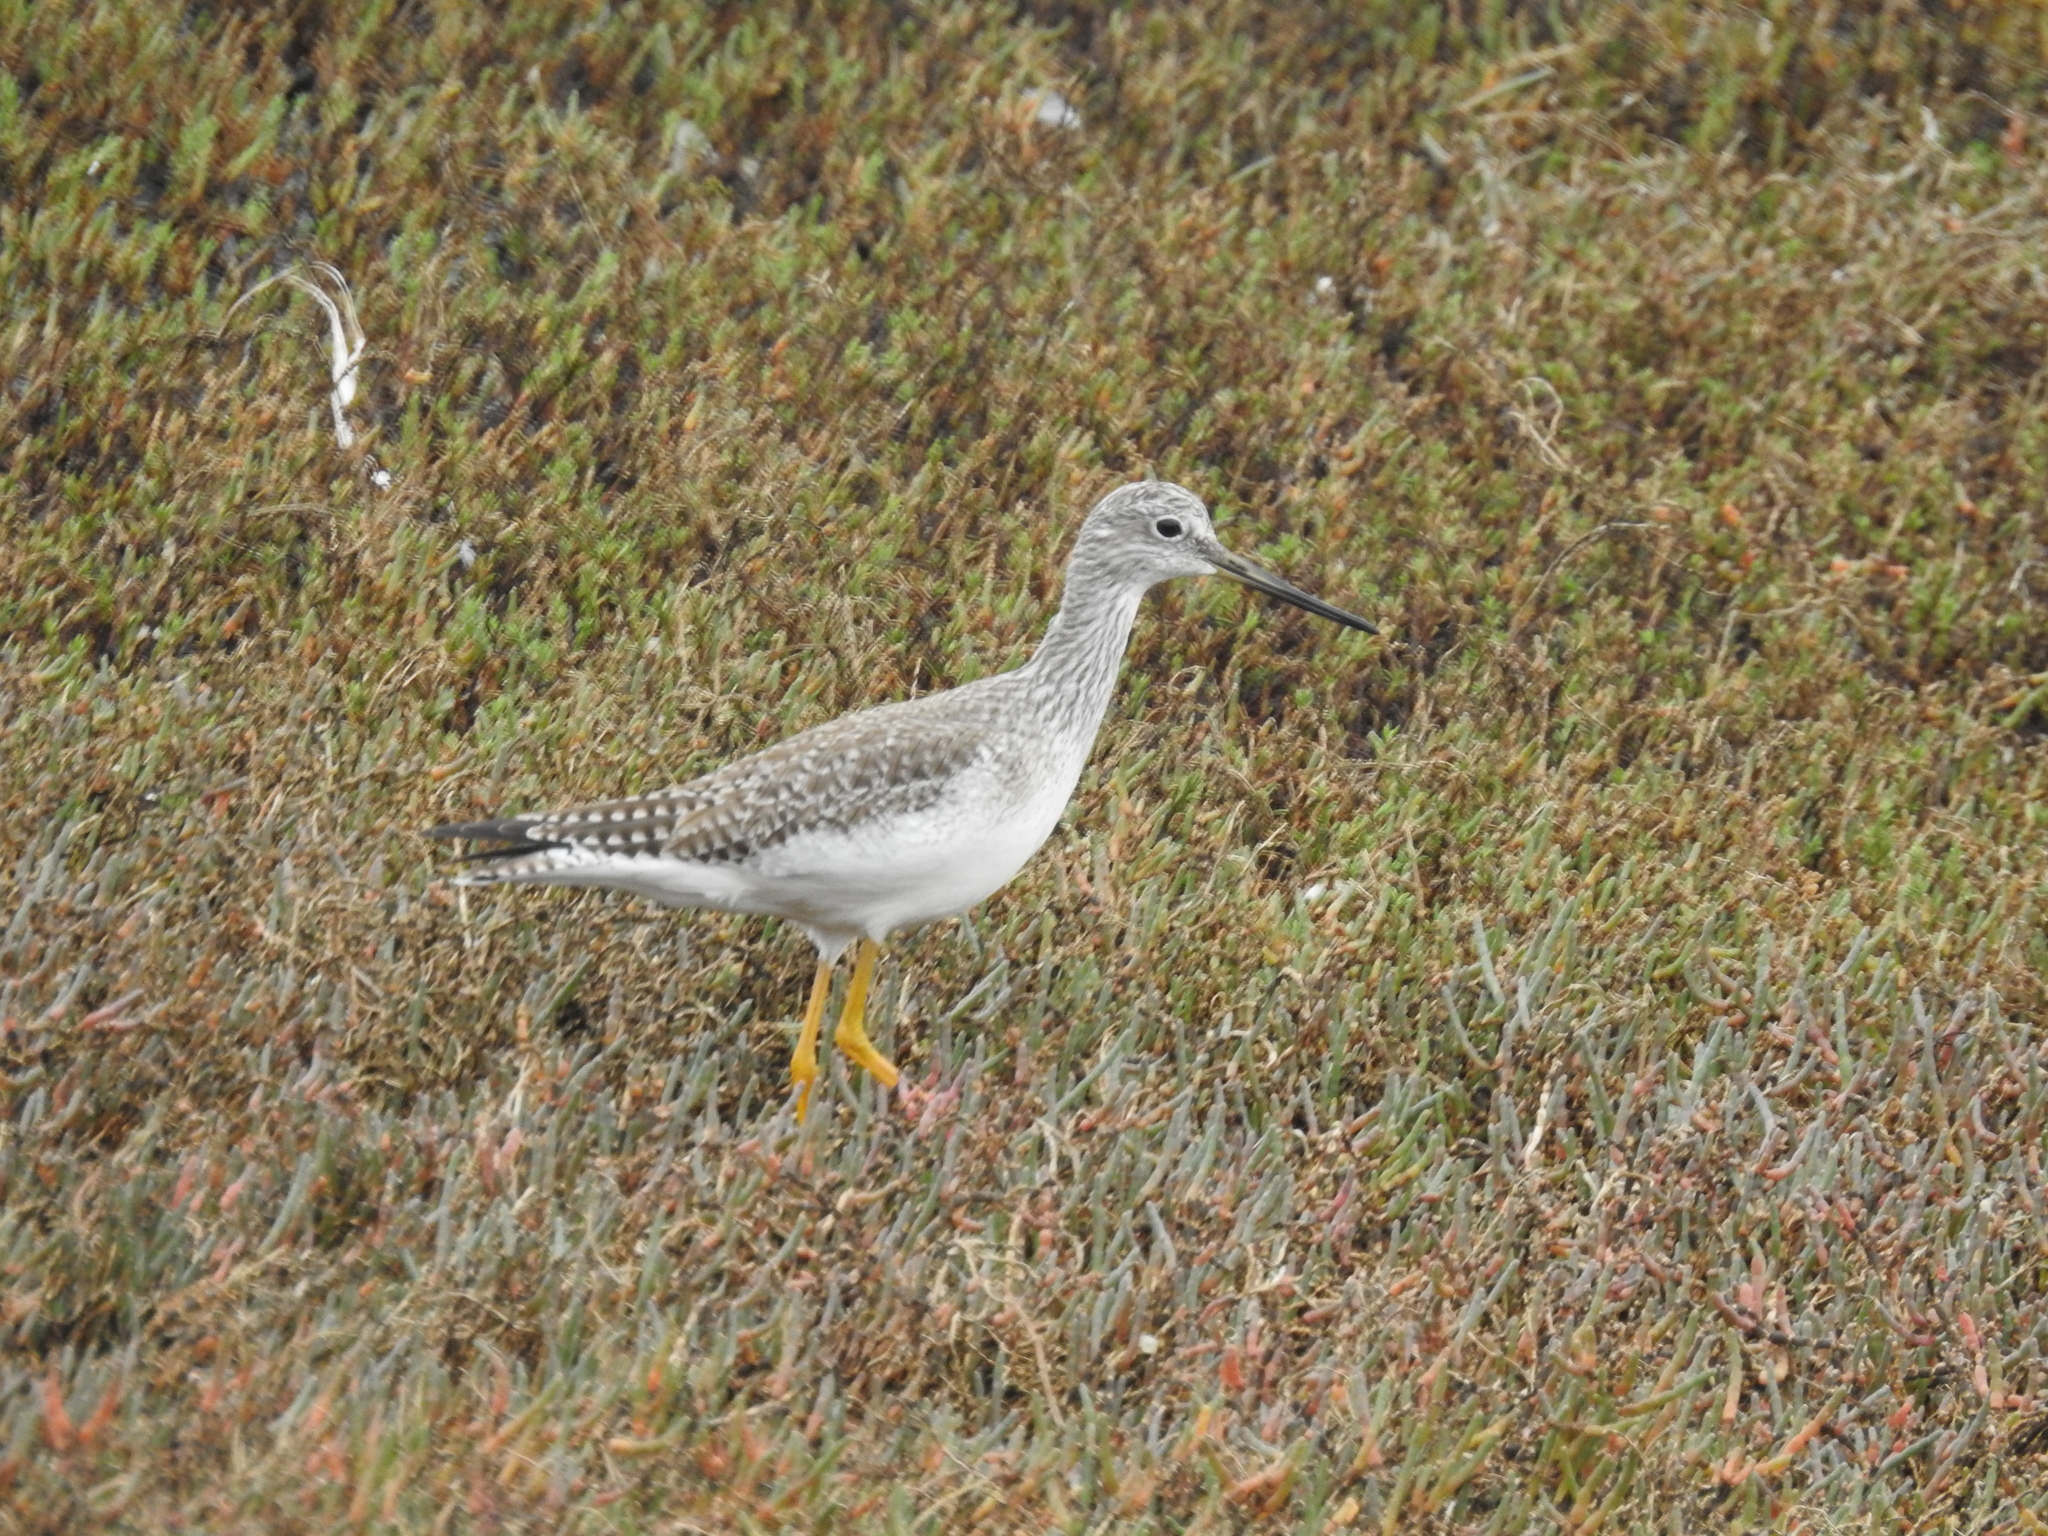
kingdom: Animalia
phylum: Chordata
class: Aves
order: Charadriiformes
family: Scolopacidae
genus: Tringa
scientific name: Tringa melanoleuca
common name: Greater yellowlegs
